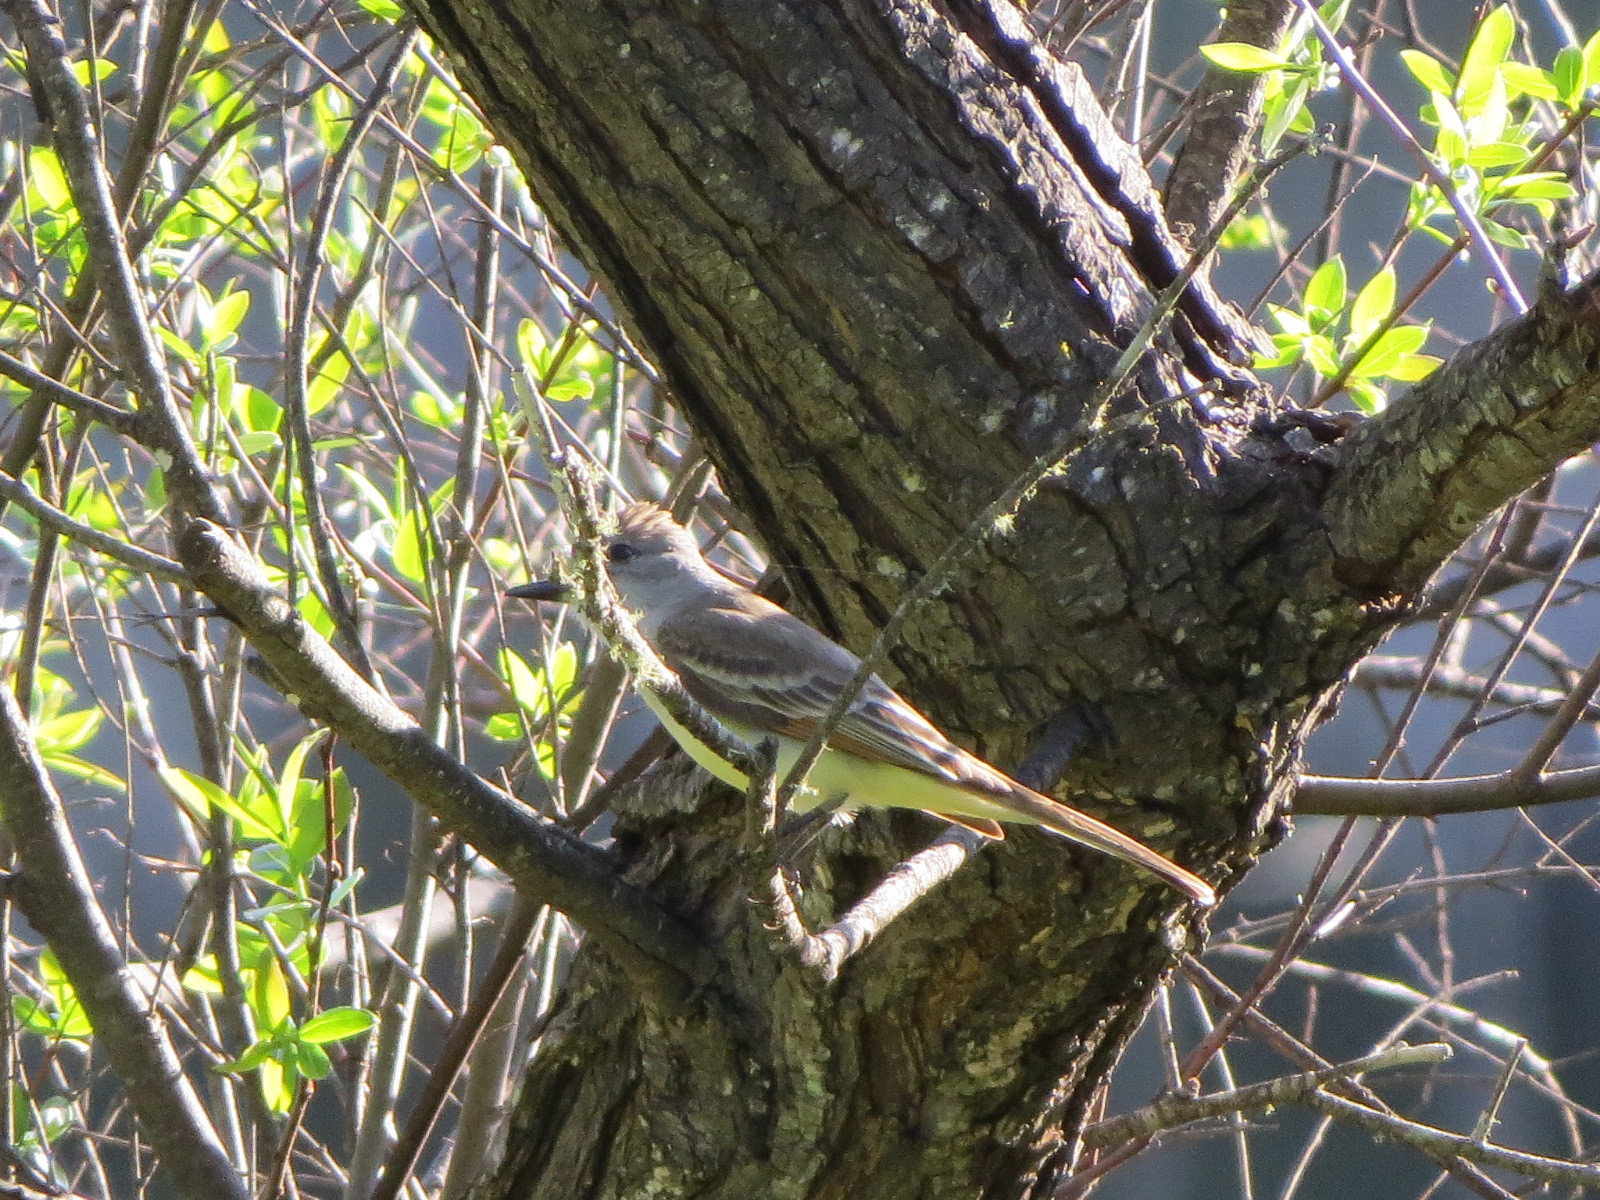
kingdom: Animalia
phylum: Chordata
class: Aves
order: Passeriformes
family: Tyrannidae
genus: Myiarchus
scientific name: Myiarchus cinerascens
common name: Ash-throated flycatcher
